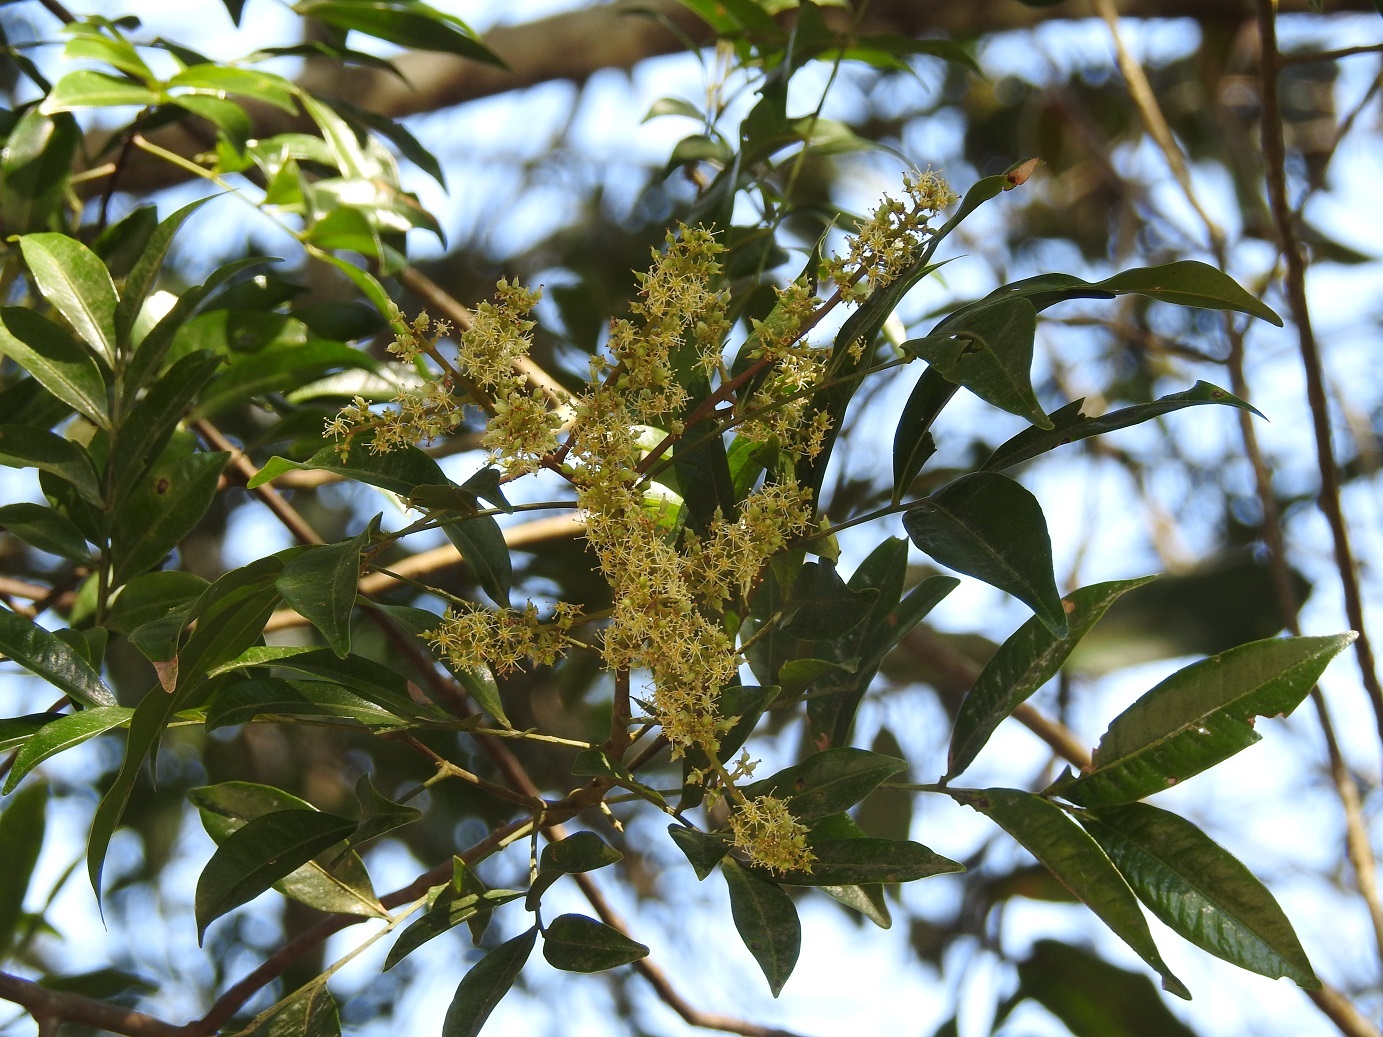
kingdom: Plantae
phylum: Tracheophyta
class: Magnoliopsida
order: Sapindales
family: Sapindaceae
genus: Matayba
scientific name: Matayba oppositifolia
